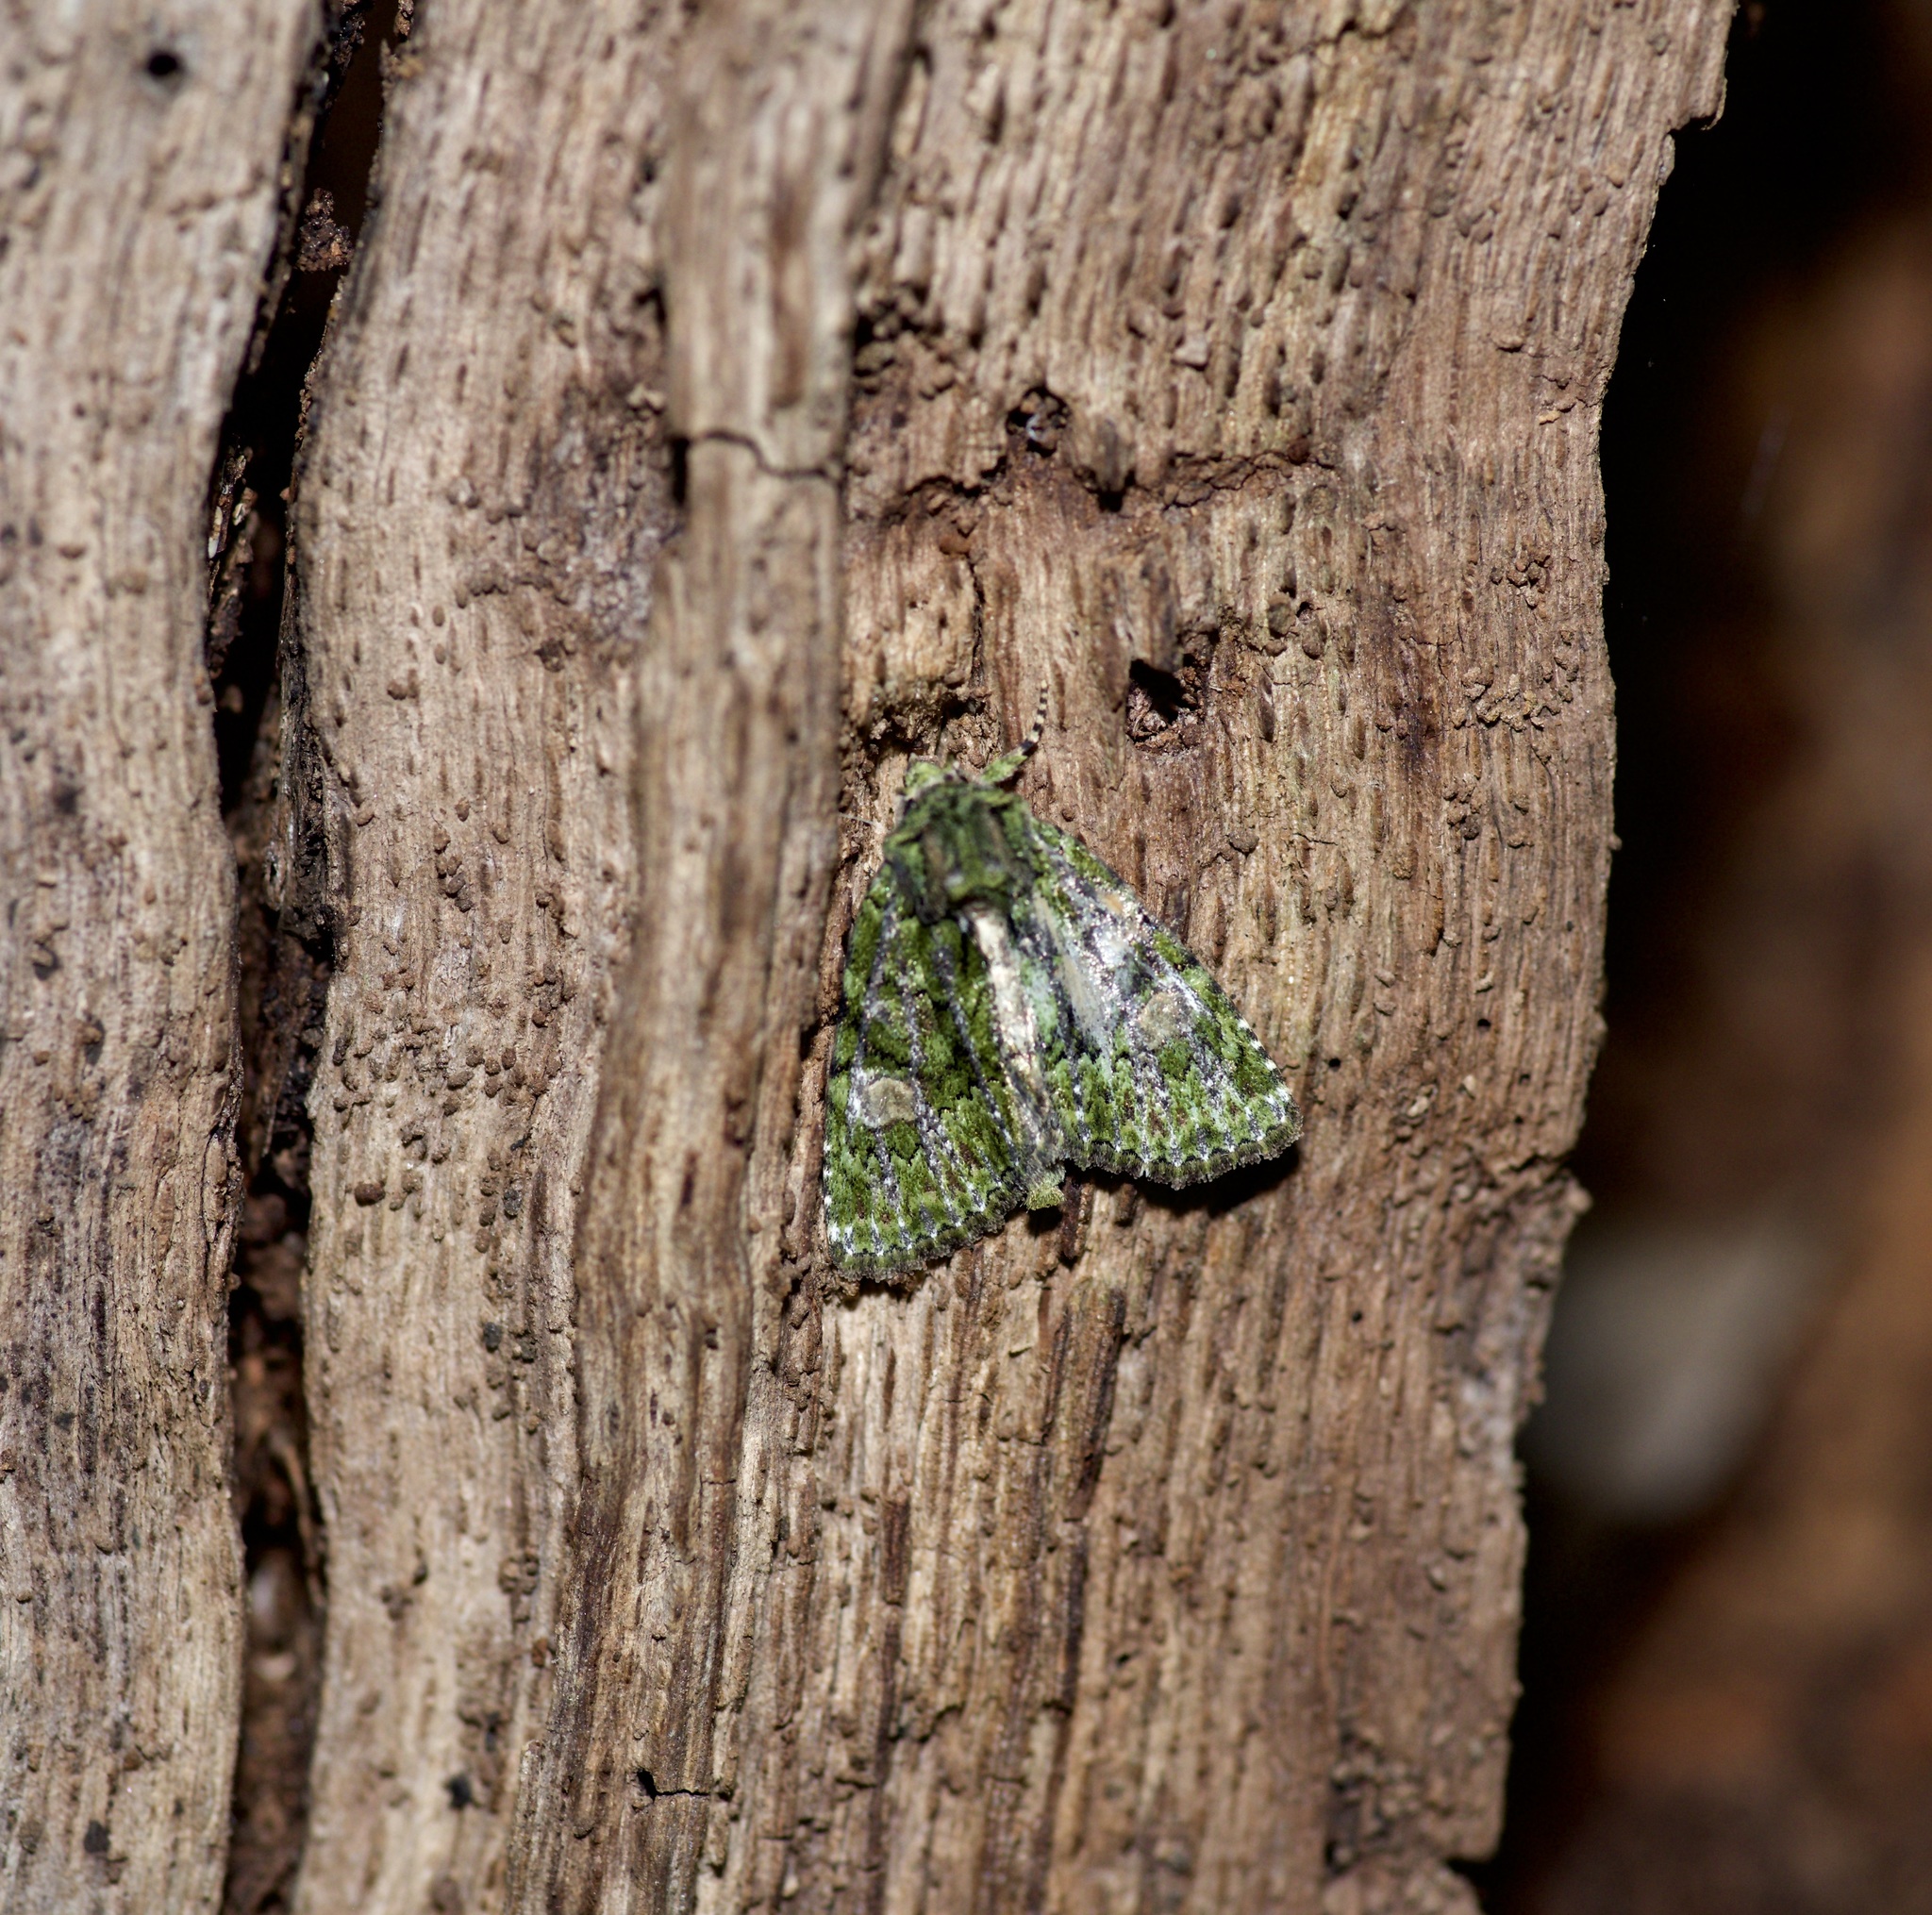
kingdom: Animalia
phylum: Arthropoda
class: Insecta
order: Lepidoptera
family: Noctuidae
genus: Phosphila
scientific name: Phosphila miselioides
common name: Spotted phosphila moth
